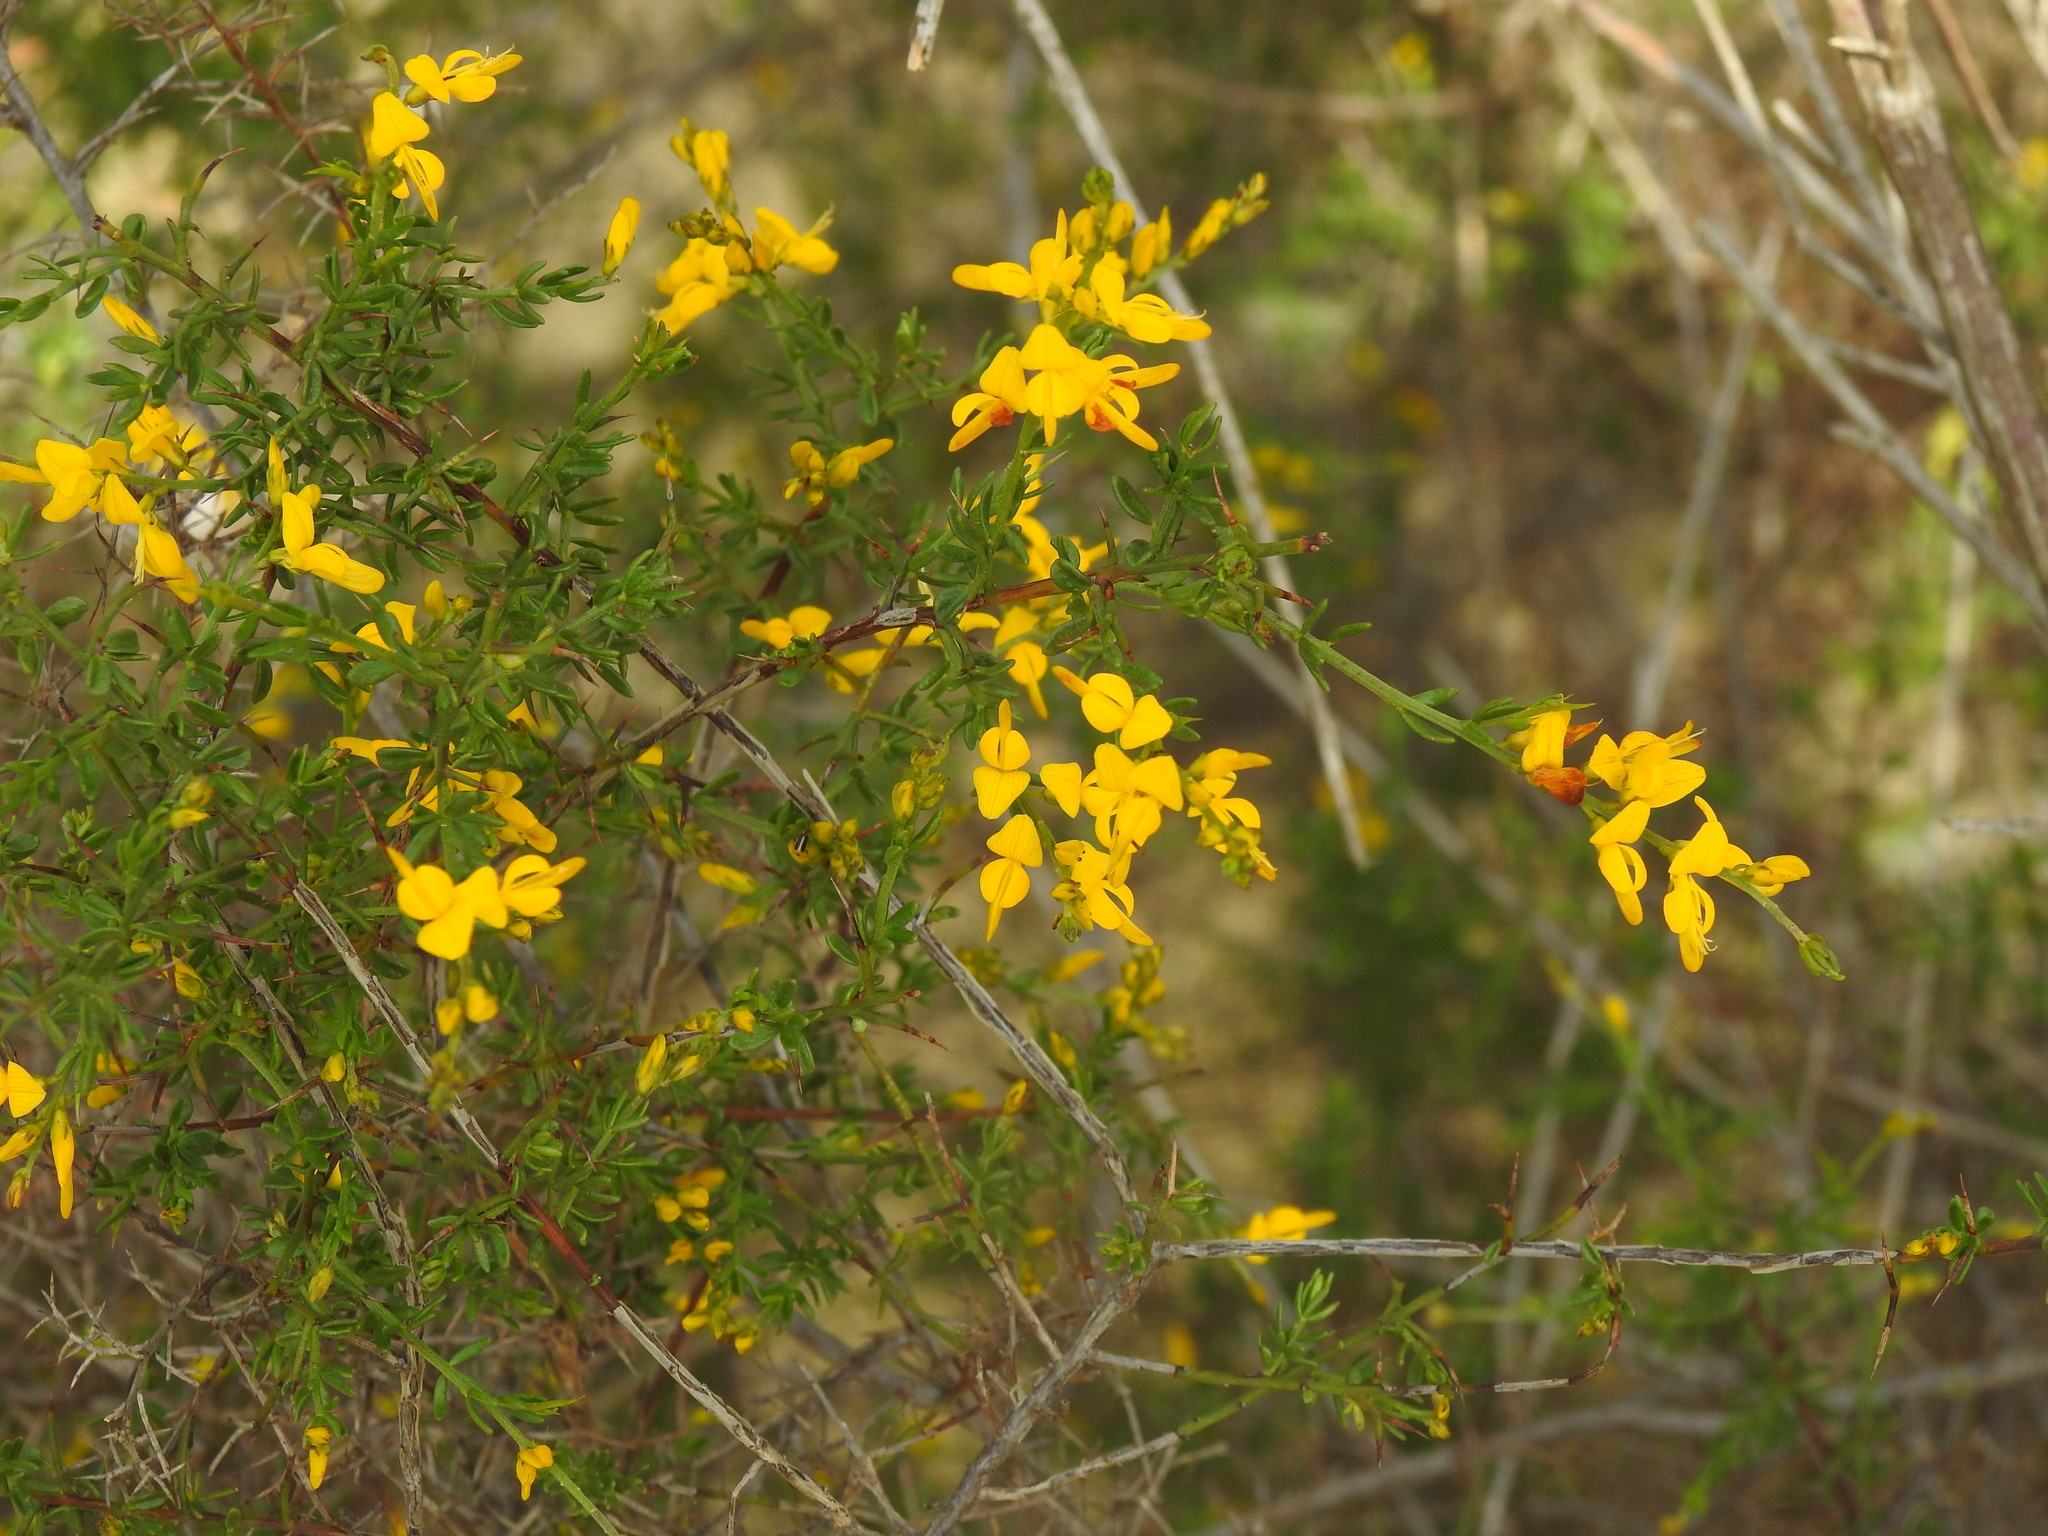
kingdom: Plantae
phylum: Tracheophyta
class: Magnoliopsida
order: Fabales
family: Fabaceae
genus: Genista
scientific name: Genista triacanthos
